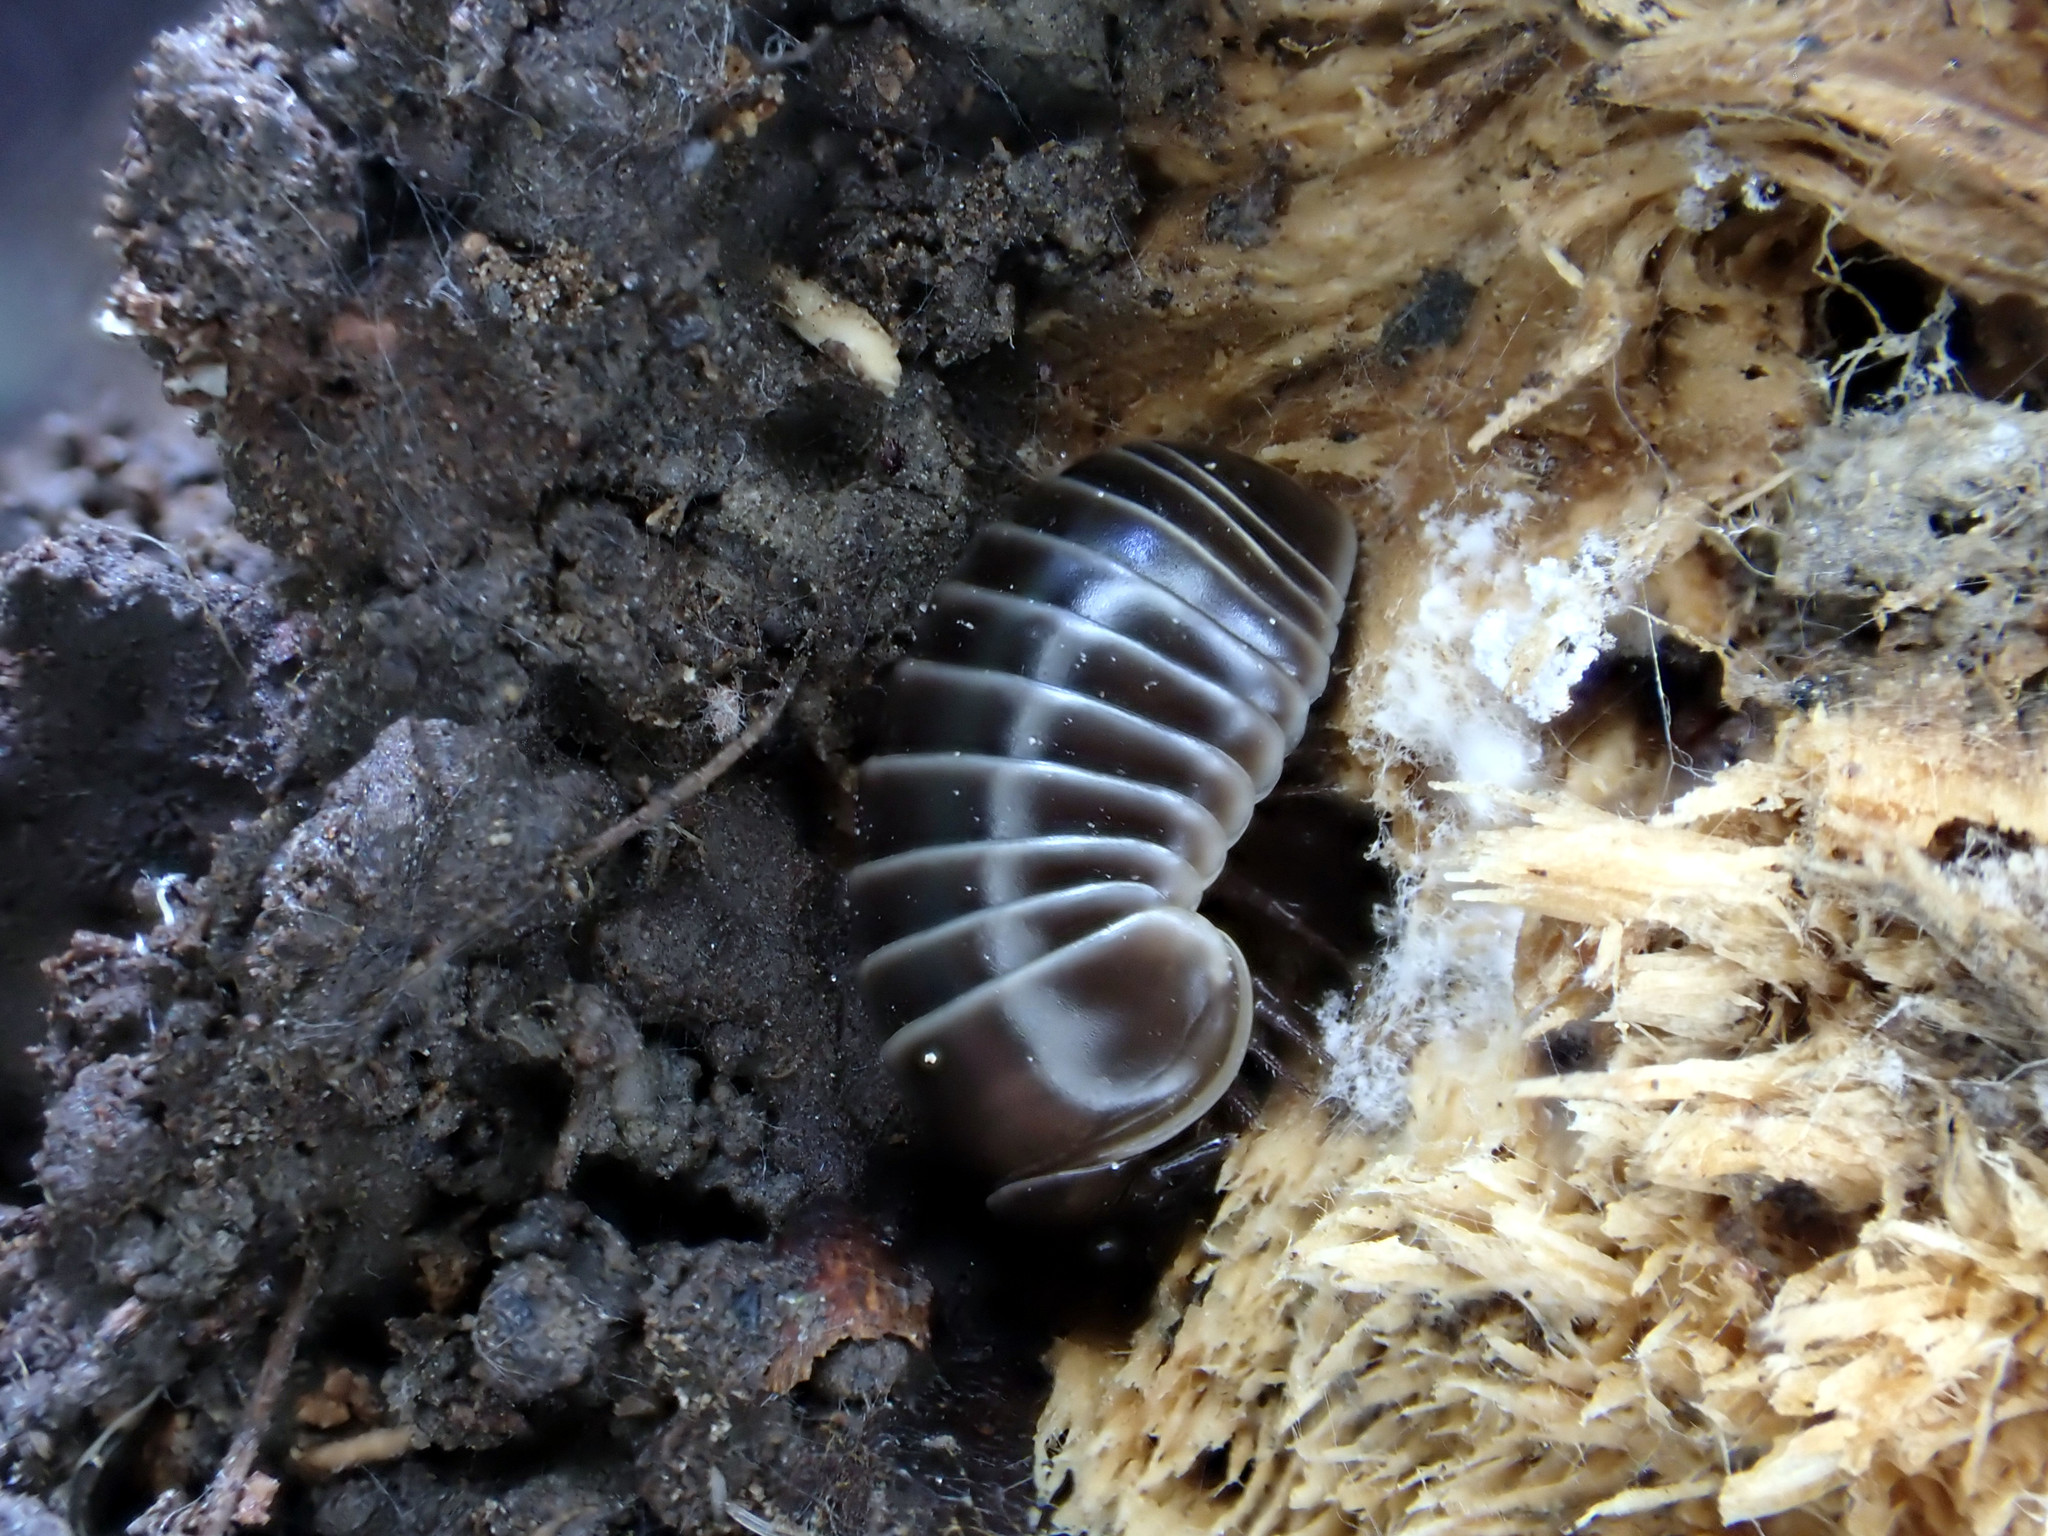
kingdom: Animalia
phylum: Arthropoda
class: Diplopoda
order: Glomerida
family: Glomeridae
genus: Glomeris
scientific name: Glomeris marginata
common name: Bordered pill millipede
